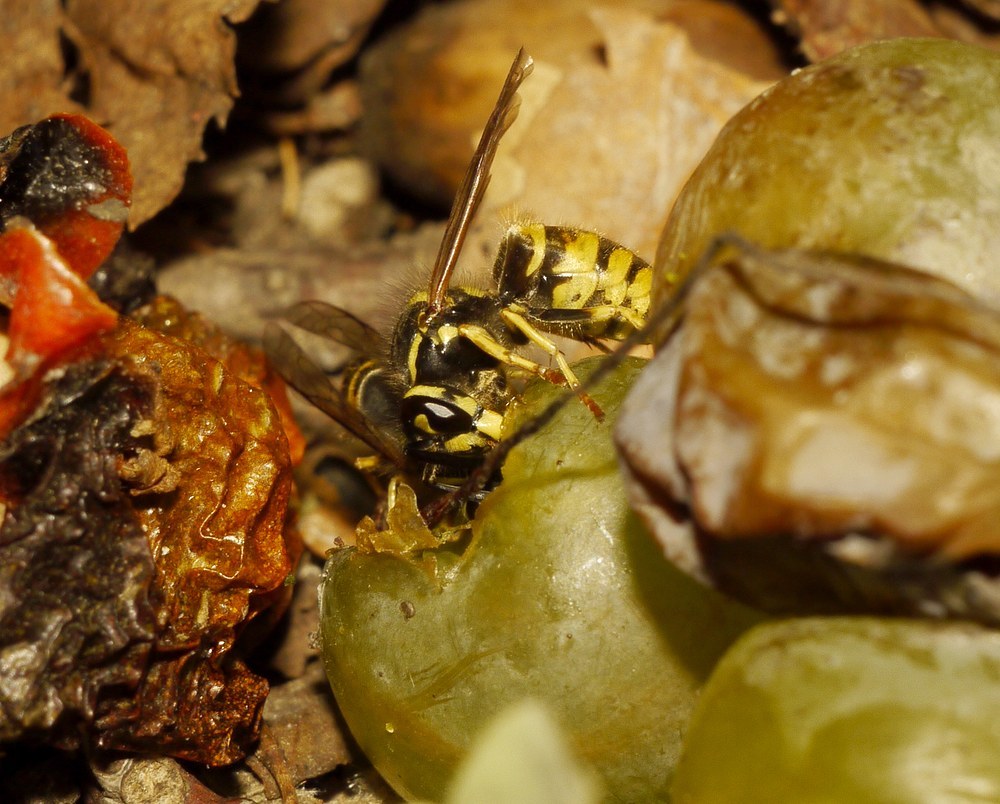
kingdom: Animalia
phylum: Arthropoda
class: Insecta
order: Hymenoptera
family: Vespidae
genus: Vespula
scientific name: Vespula vulgaris
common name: Common wasp
